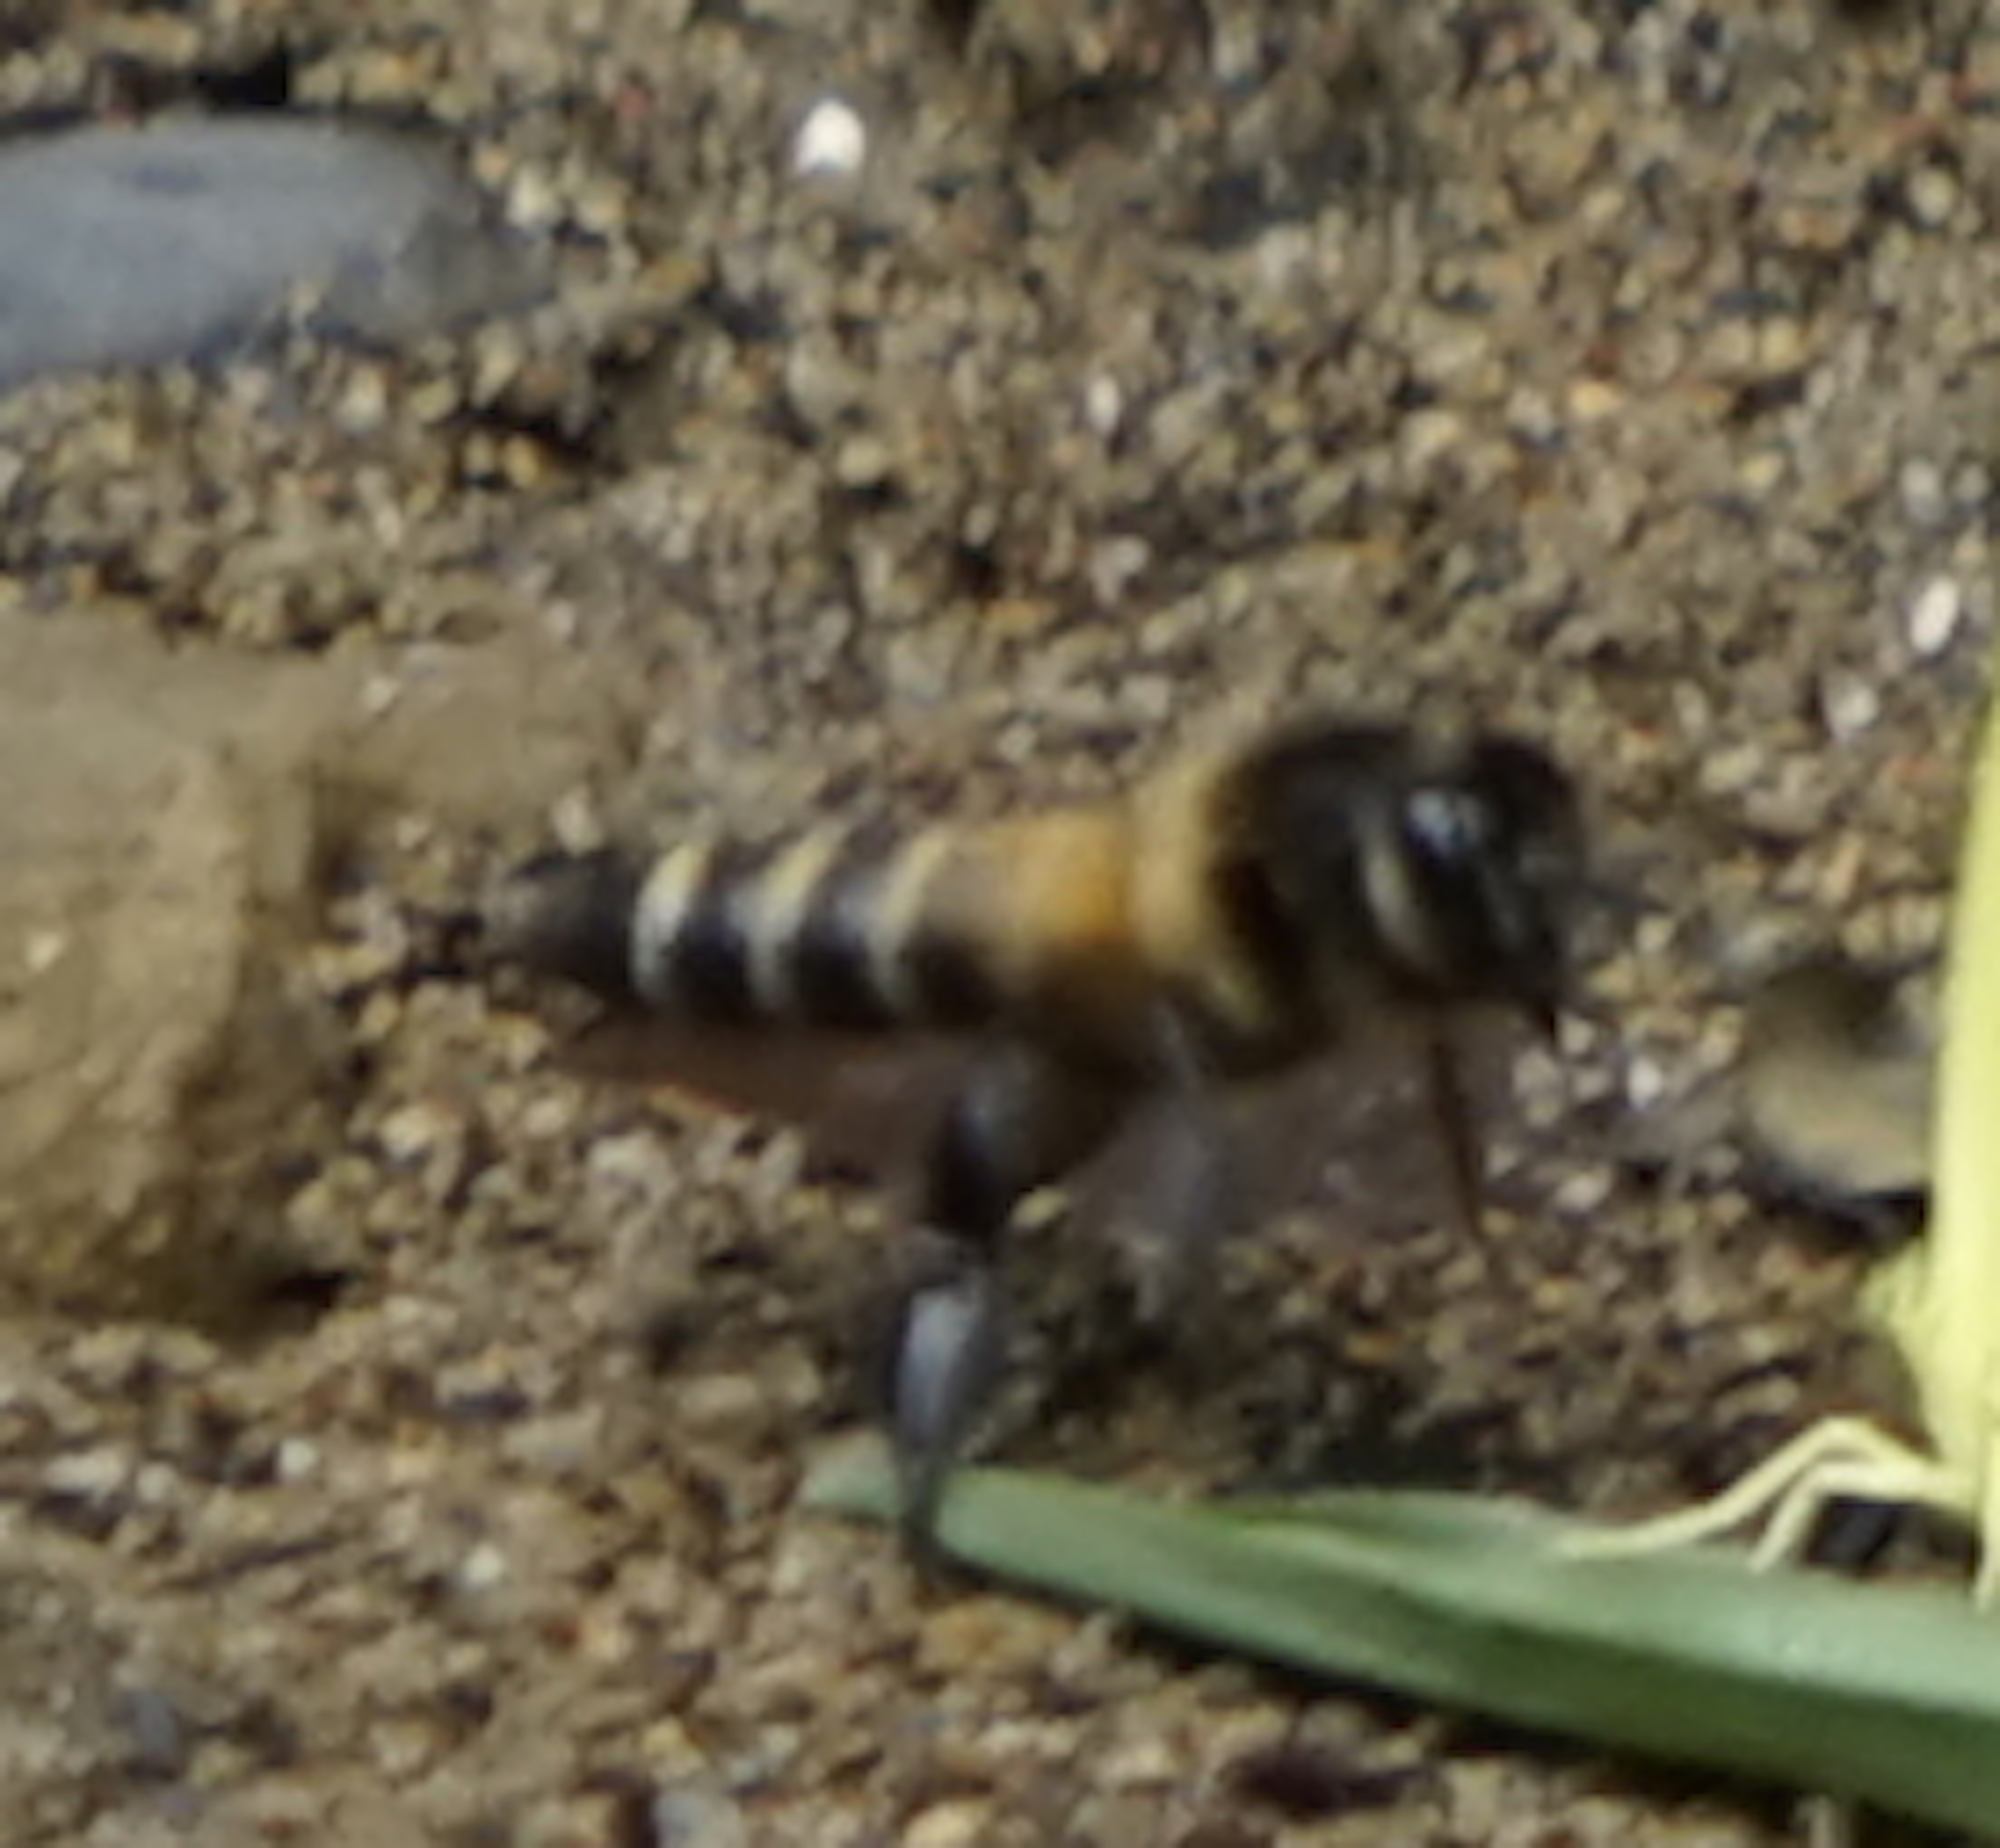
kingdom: Animalia
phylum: Arthropoda
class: Insecta
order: Hymenoptera
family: Apidae
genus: Apis
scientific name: Apis dorsata
